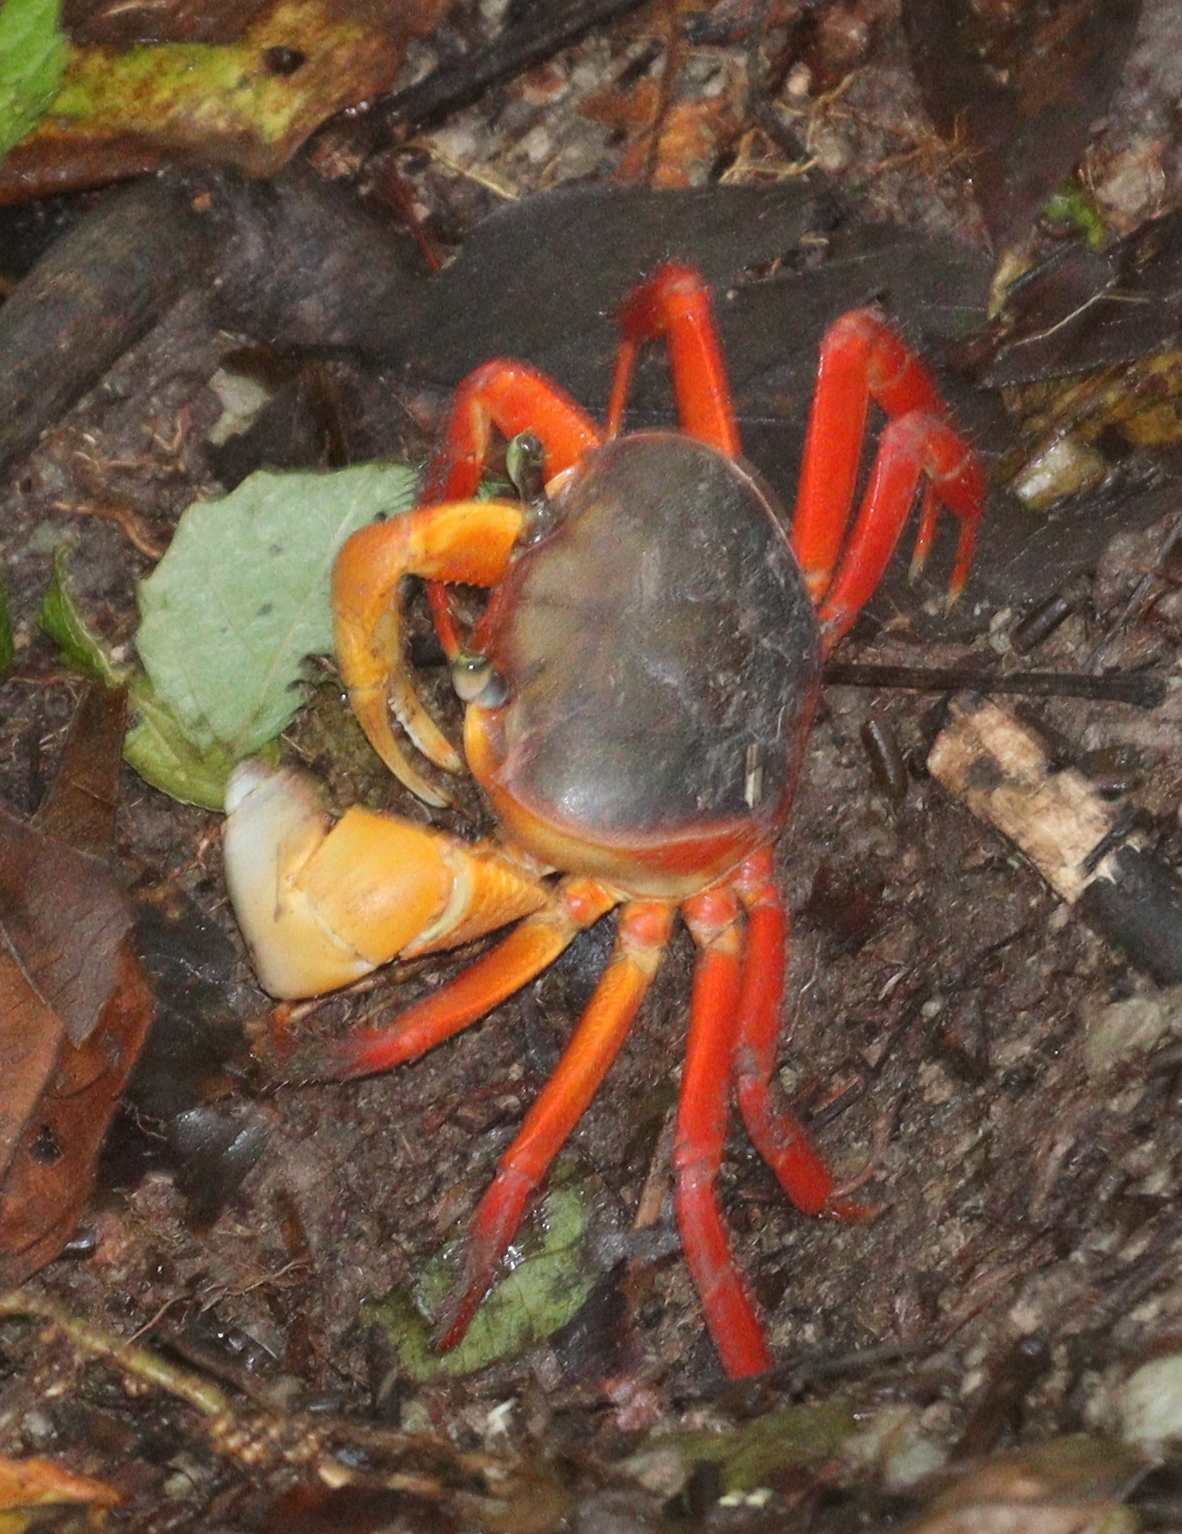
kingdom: Animalia
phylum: Arthropoda
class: Malacostraca
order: Decapoda
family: Gecarcinidae
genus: Cardisoma
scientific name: Cardisoma crassum
